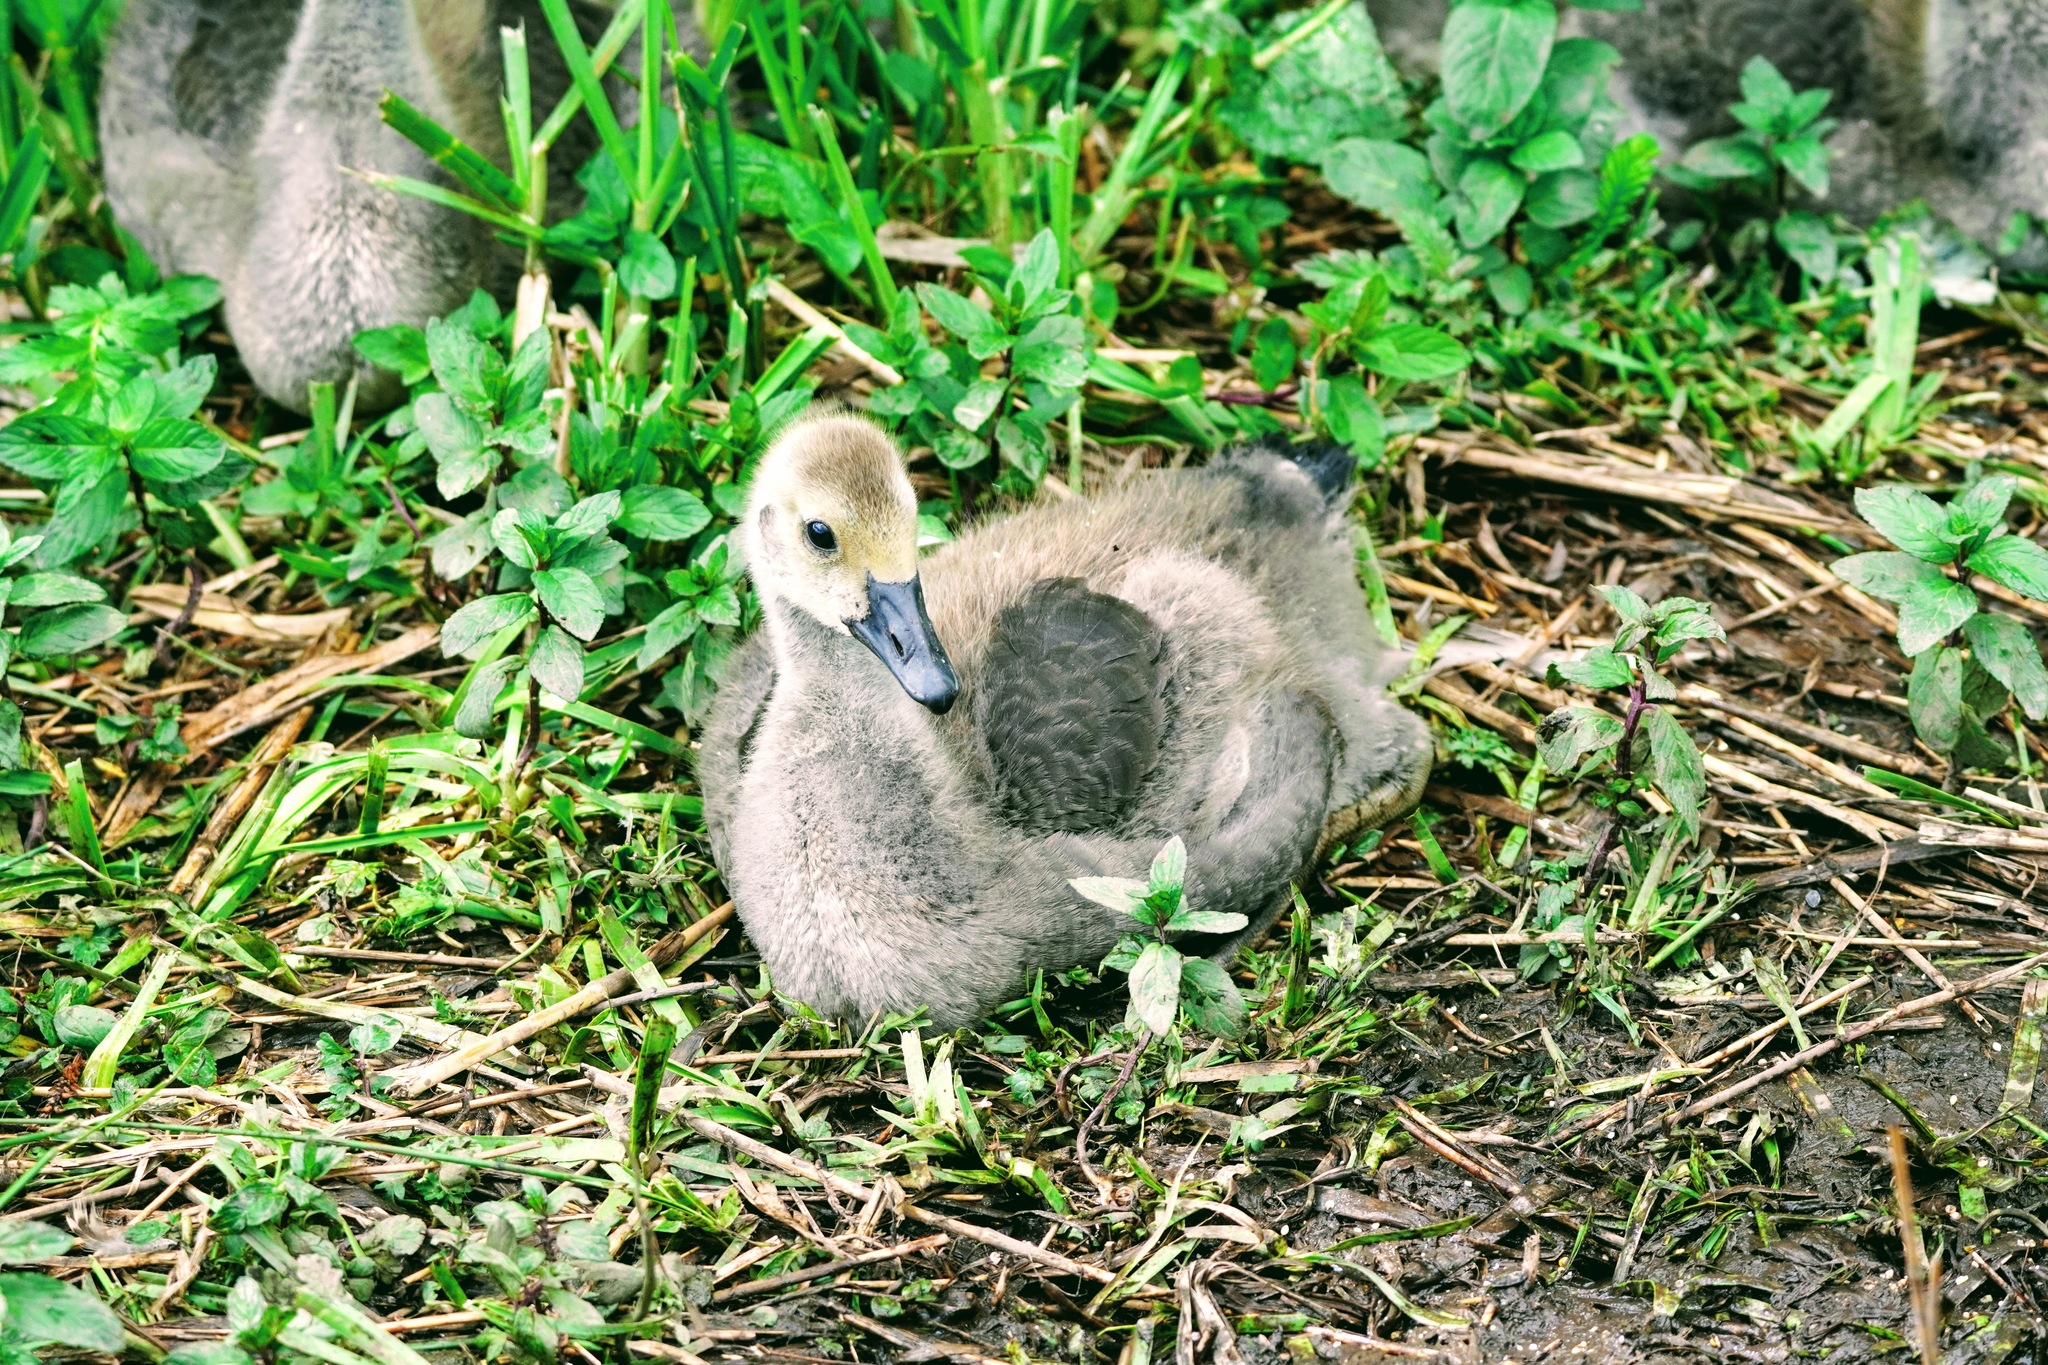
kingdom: Animalia
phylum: Chordata
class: Aves
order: Anseriformes
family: Anatidae
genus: Branta
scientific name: Branta canadensis
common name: Canada goose
